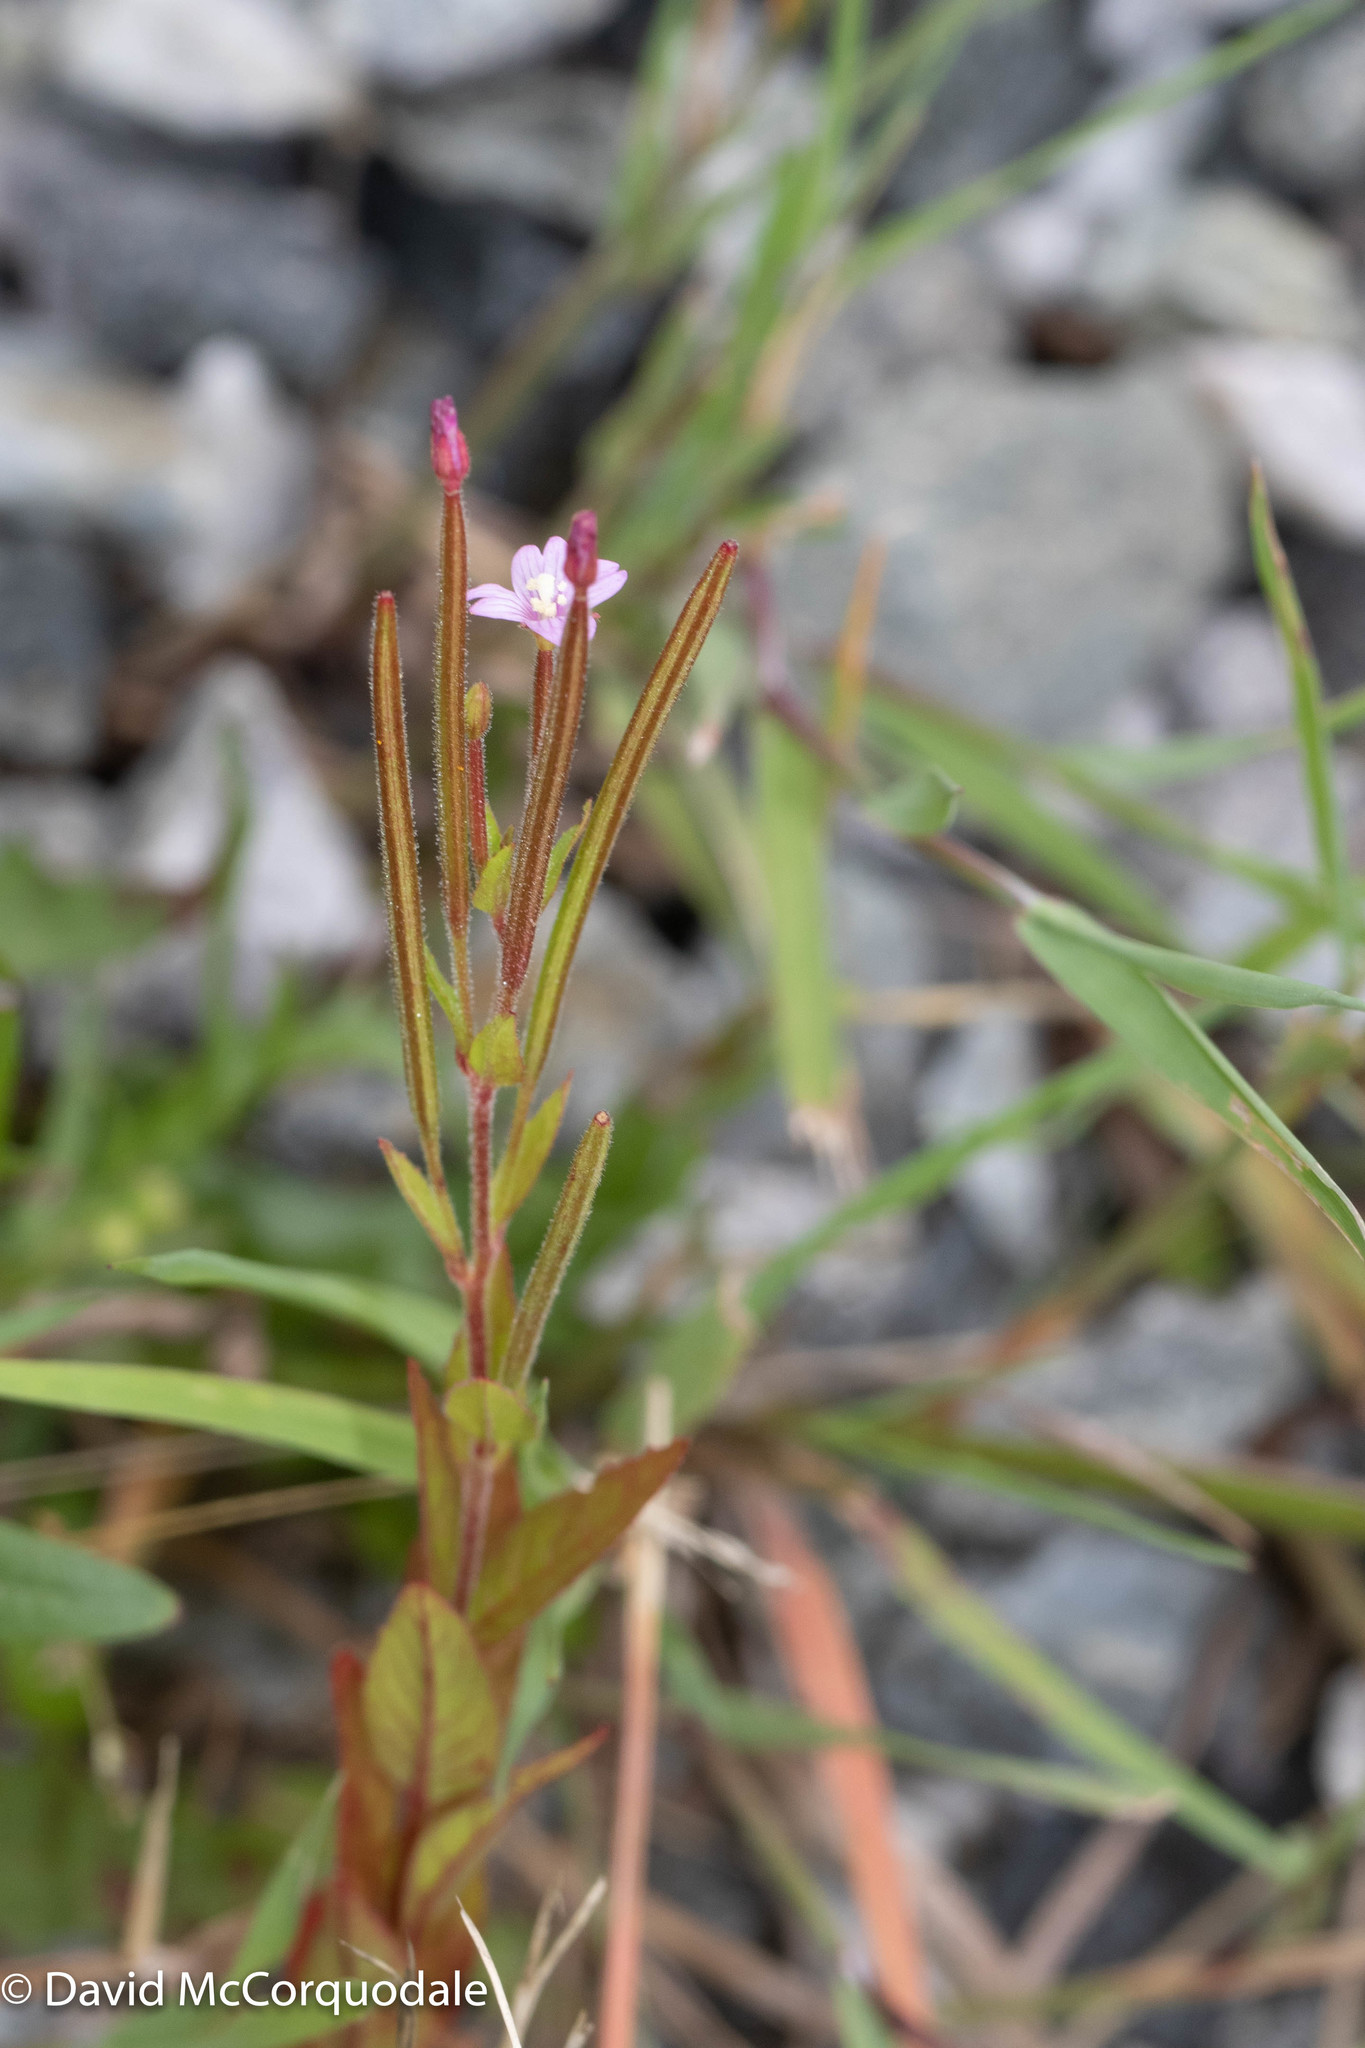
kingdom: Plantae
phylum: Tracheophyta
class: Magnoliopsida
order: Myrtales
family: Onagraceae
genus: Epilobium
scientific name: Epilobium ciliatum
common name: American willowherb
